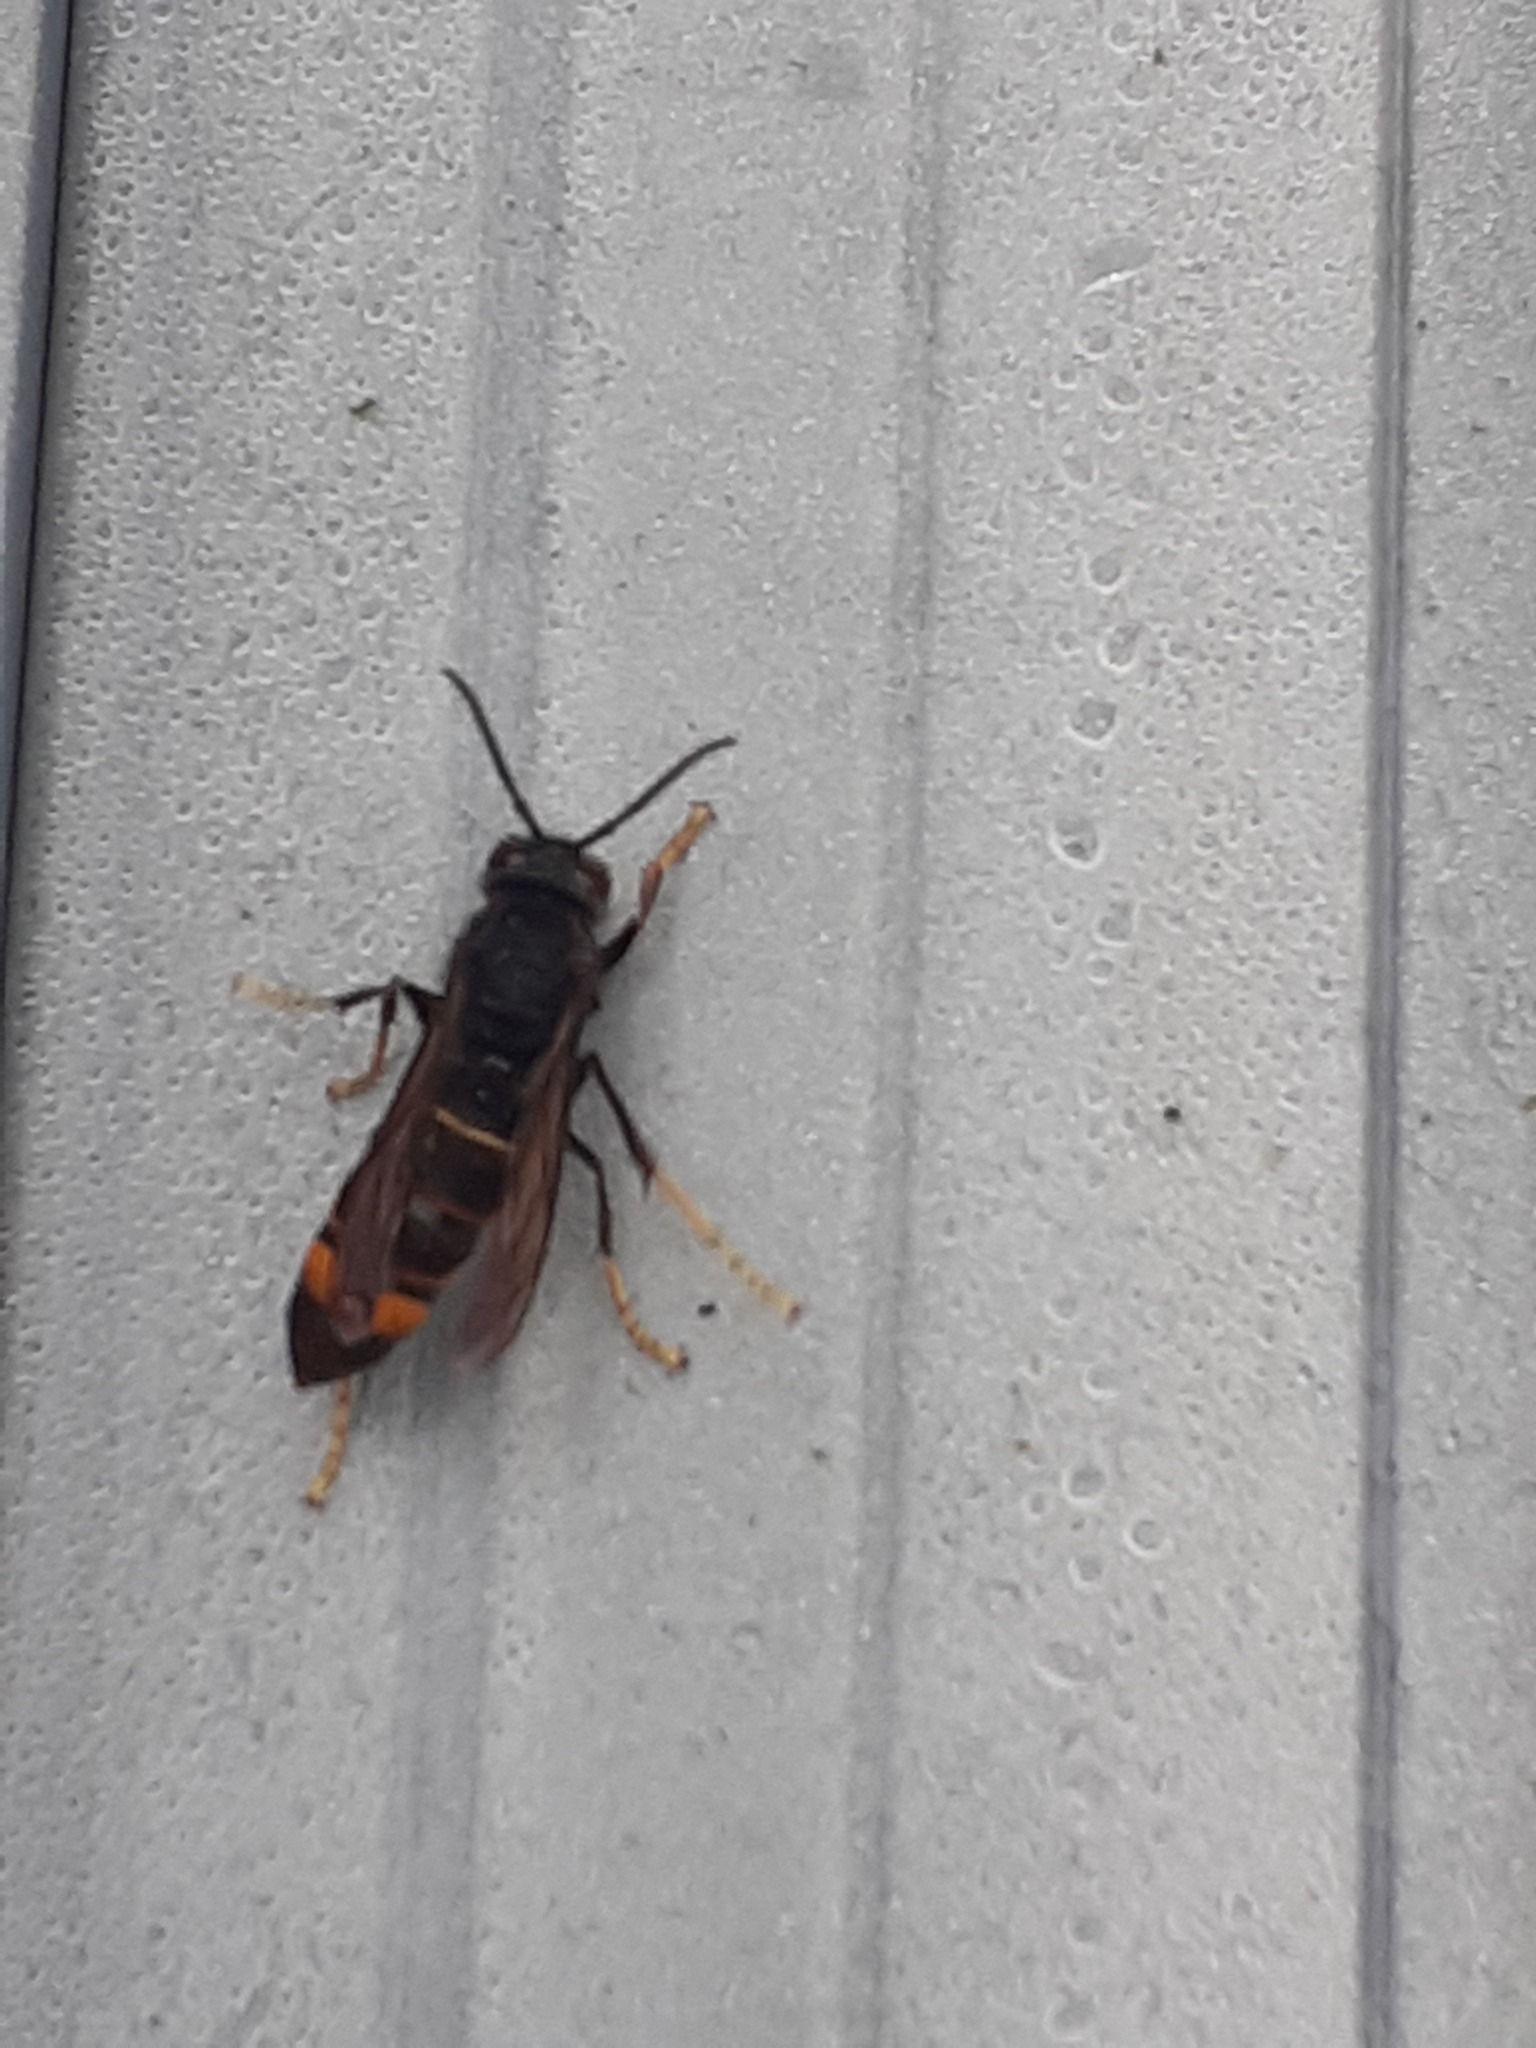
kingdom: Animalia
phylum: Arthropoda
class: Insecta
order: Hymenoptera
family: Vespidae
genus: Vespa
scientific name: Vespa velutina
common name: Asian hornet
